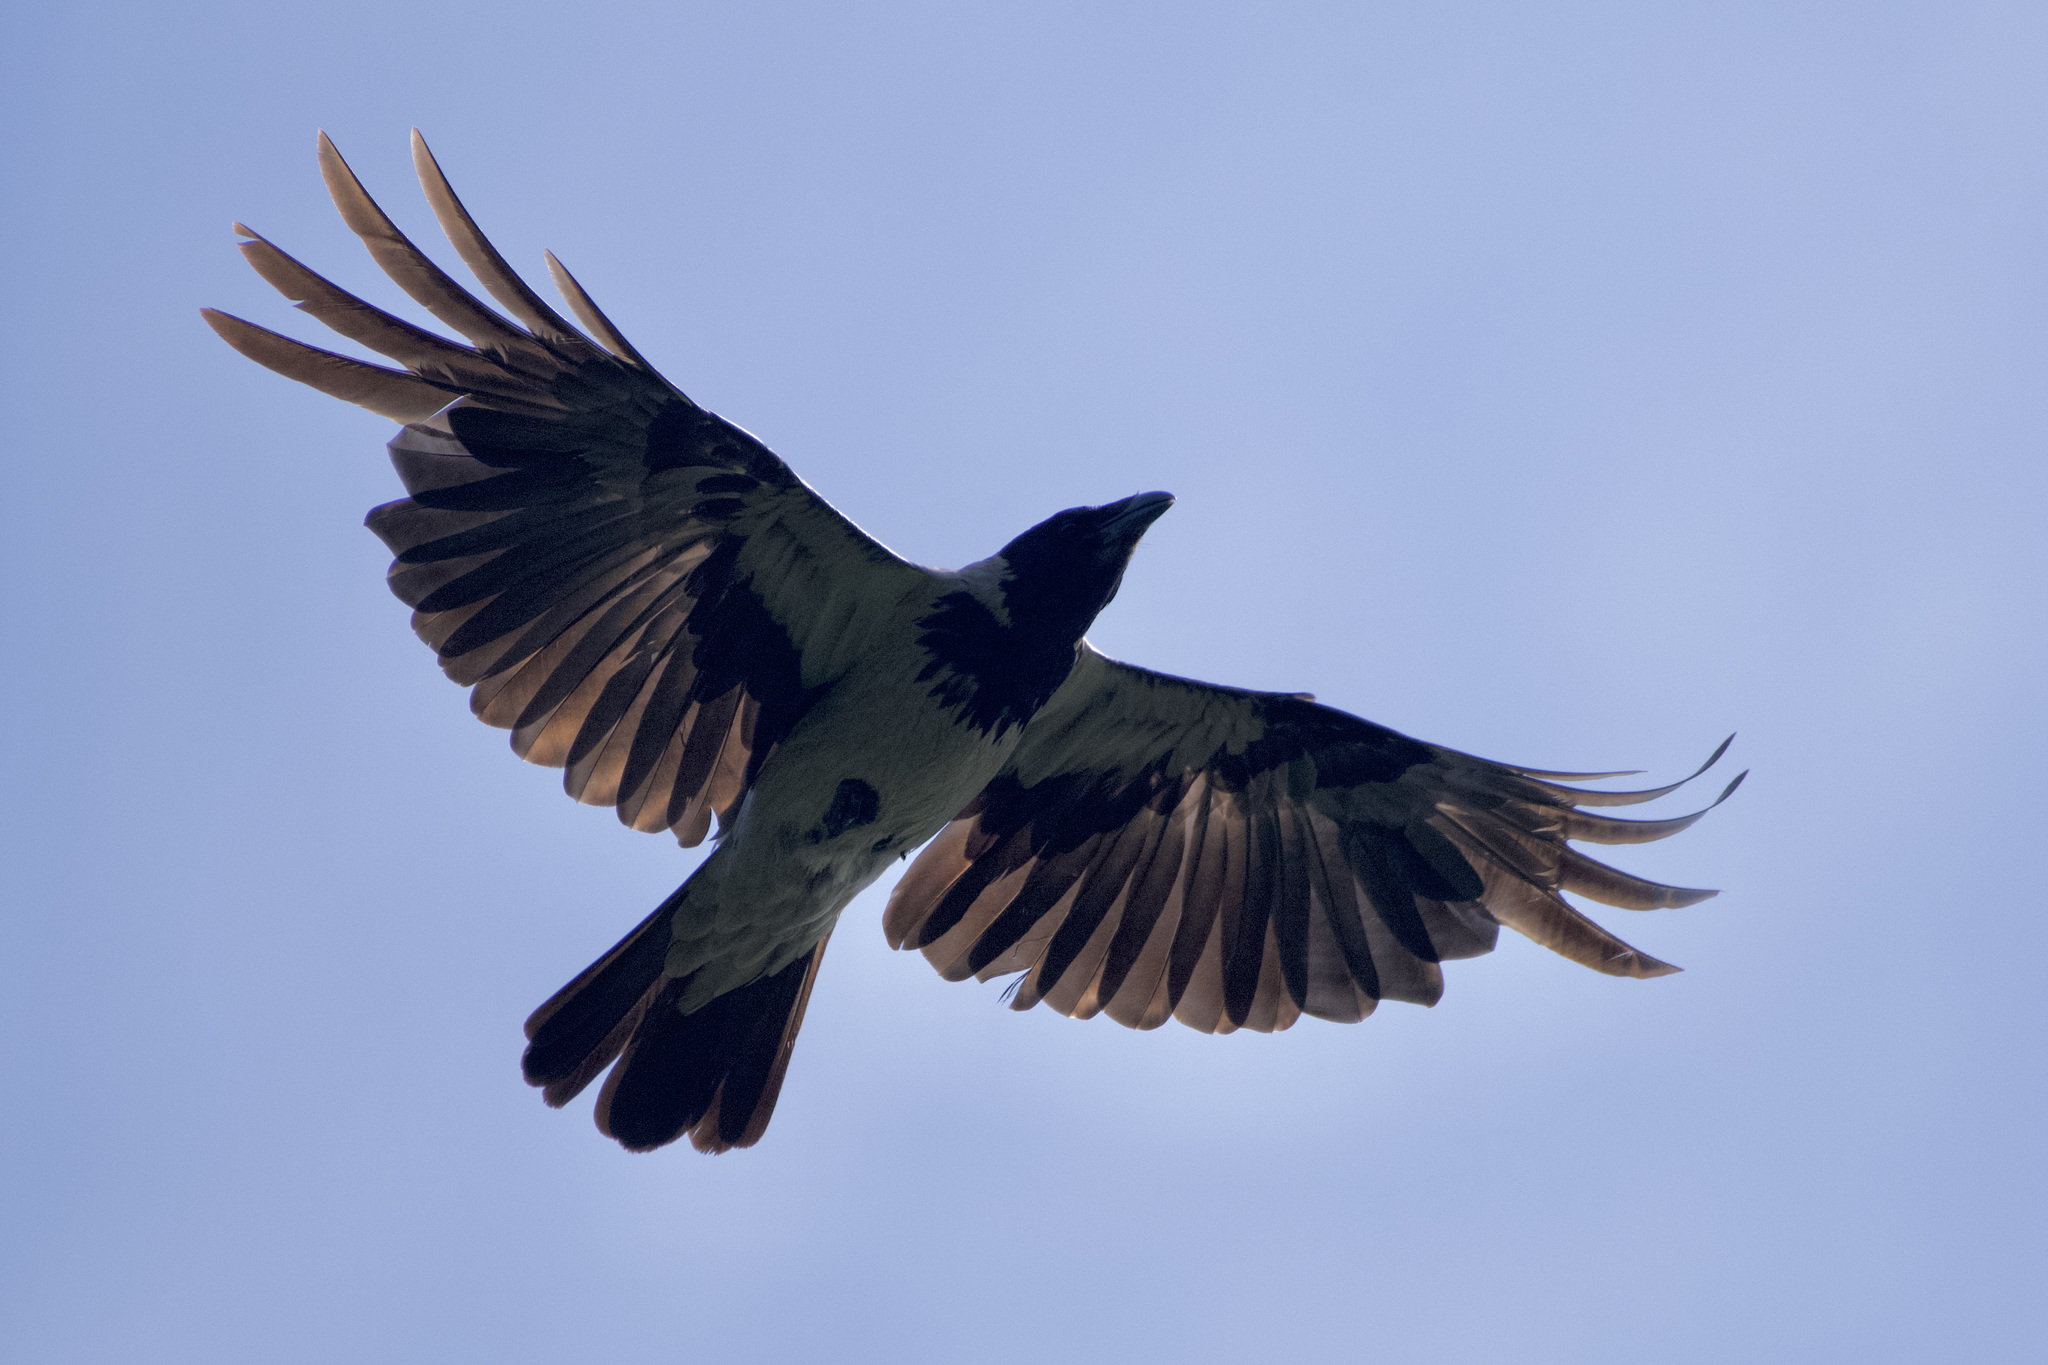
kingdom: Animalia
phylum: Chordata
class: Aves
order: Passeriformes
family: Corvidae
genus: Corvus
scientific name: Corvus cornix
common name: Hooded crow
